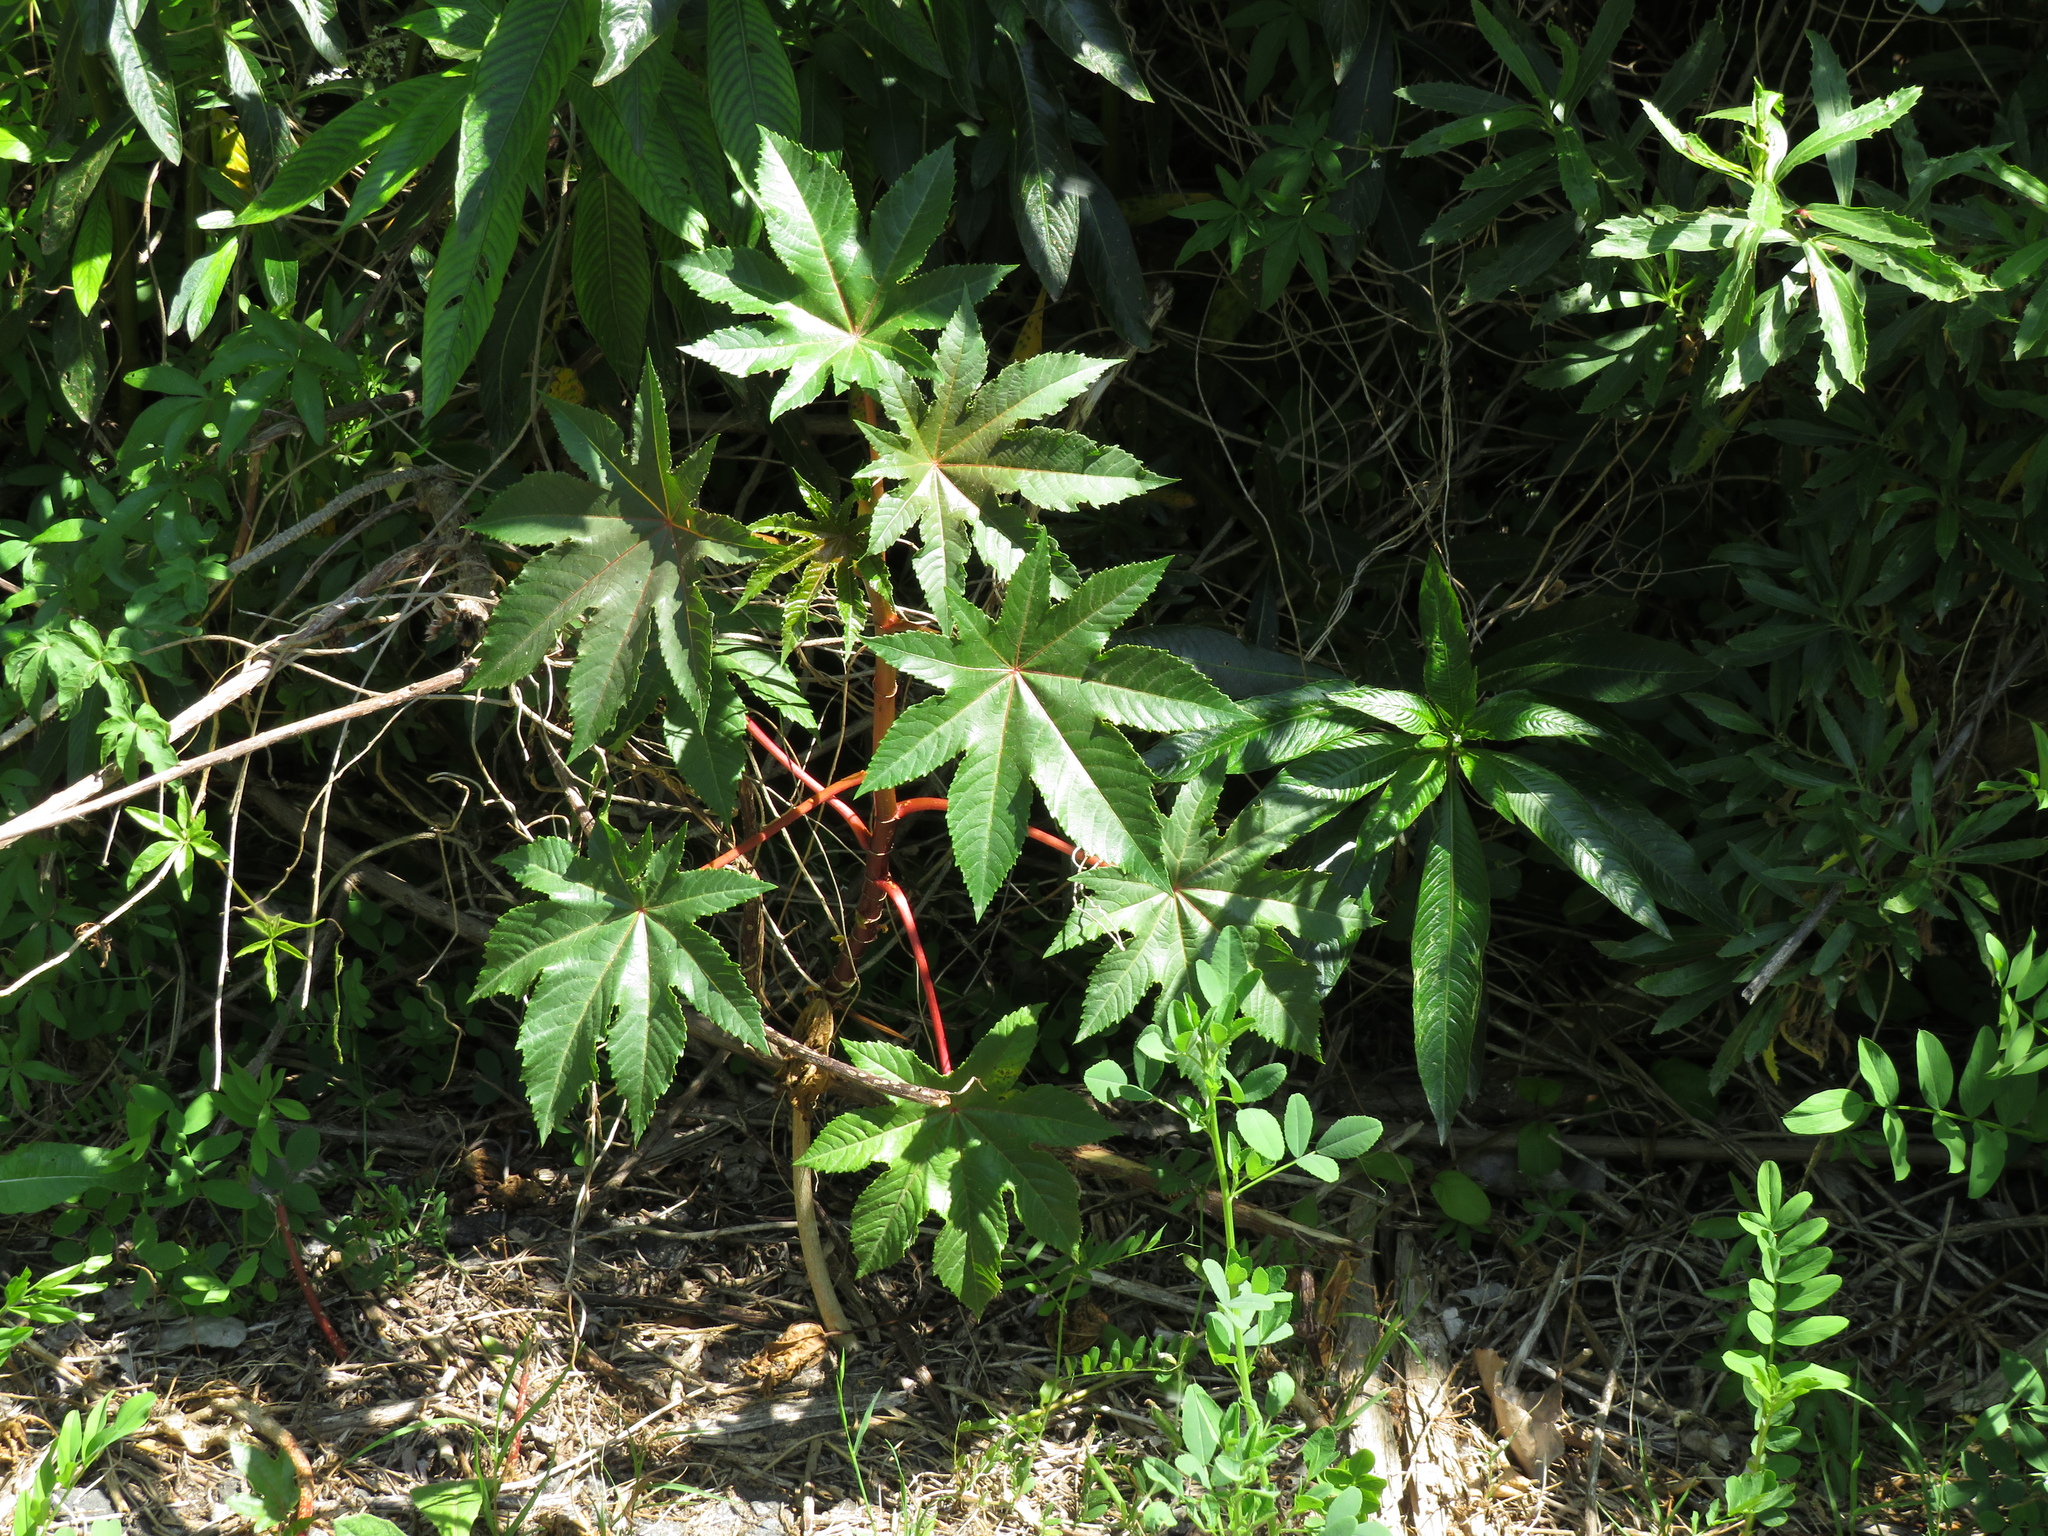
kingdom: Plantae
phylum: Tracheophyta
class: Magnoliopsida
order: Malpighiales
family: Euphorbiaceae
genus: Ricinus
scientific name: Ricinus communis
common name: Castor-oil-plant
